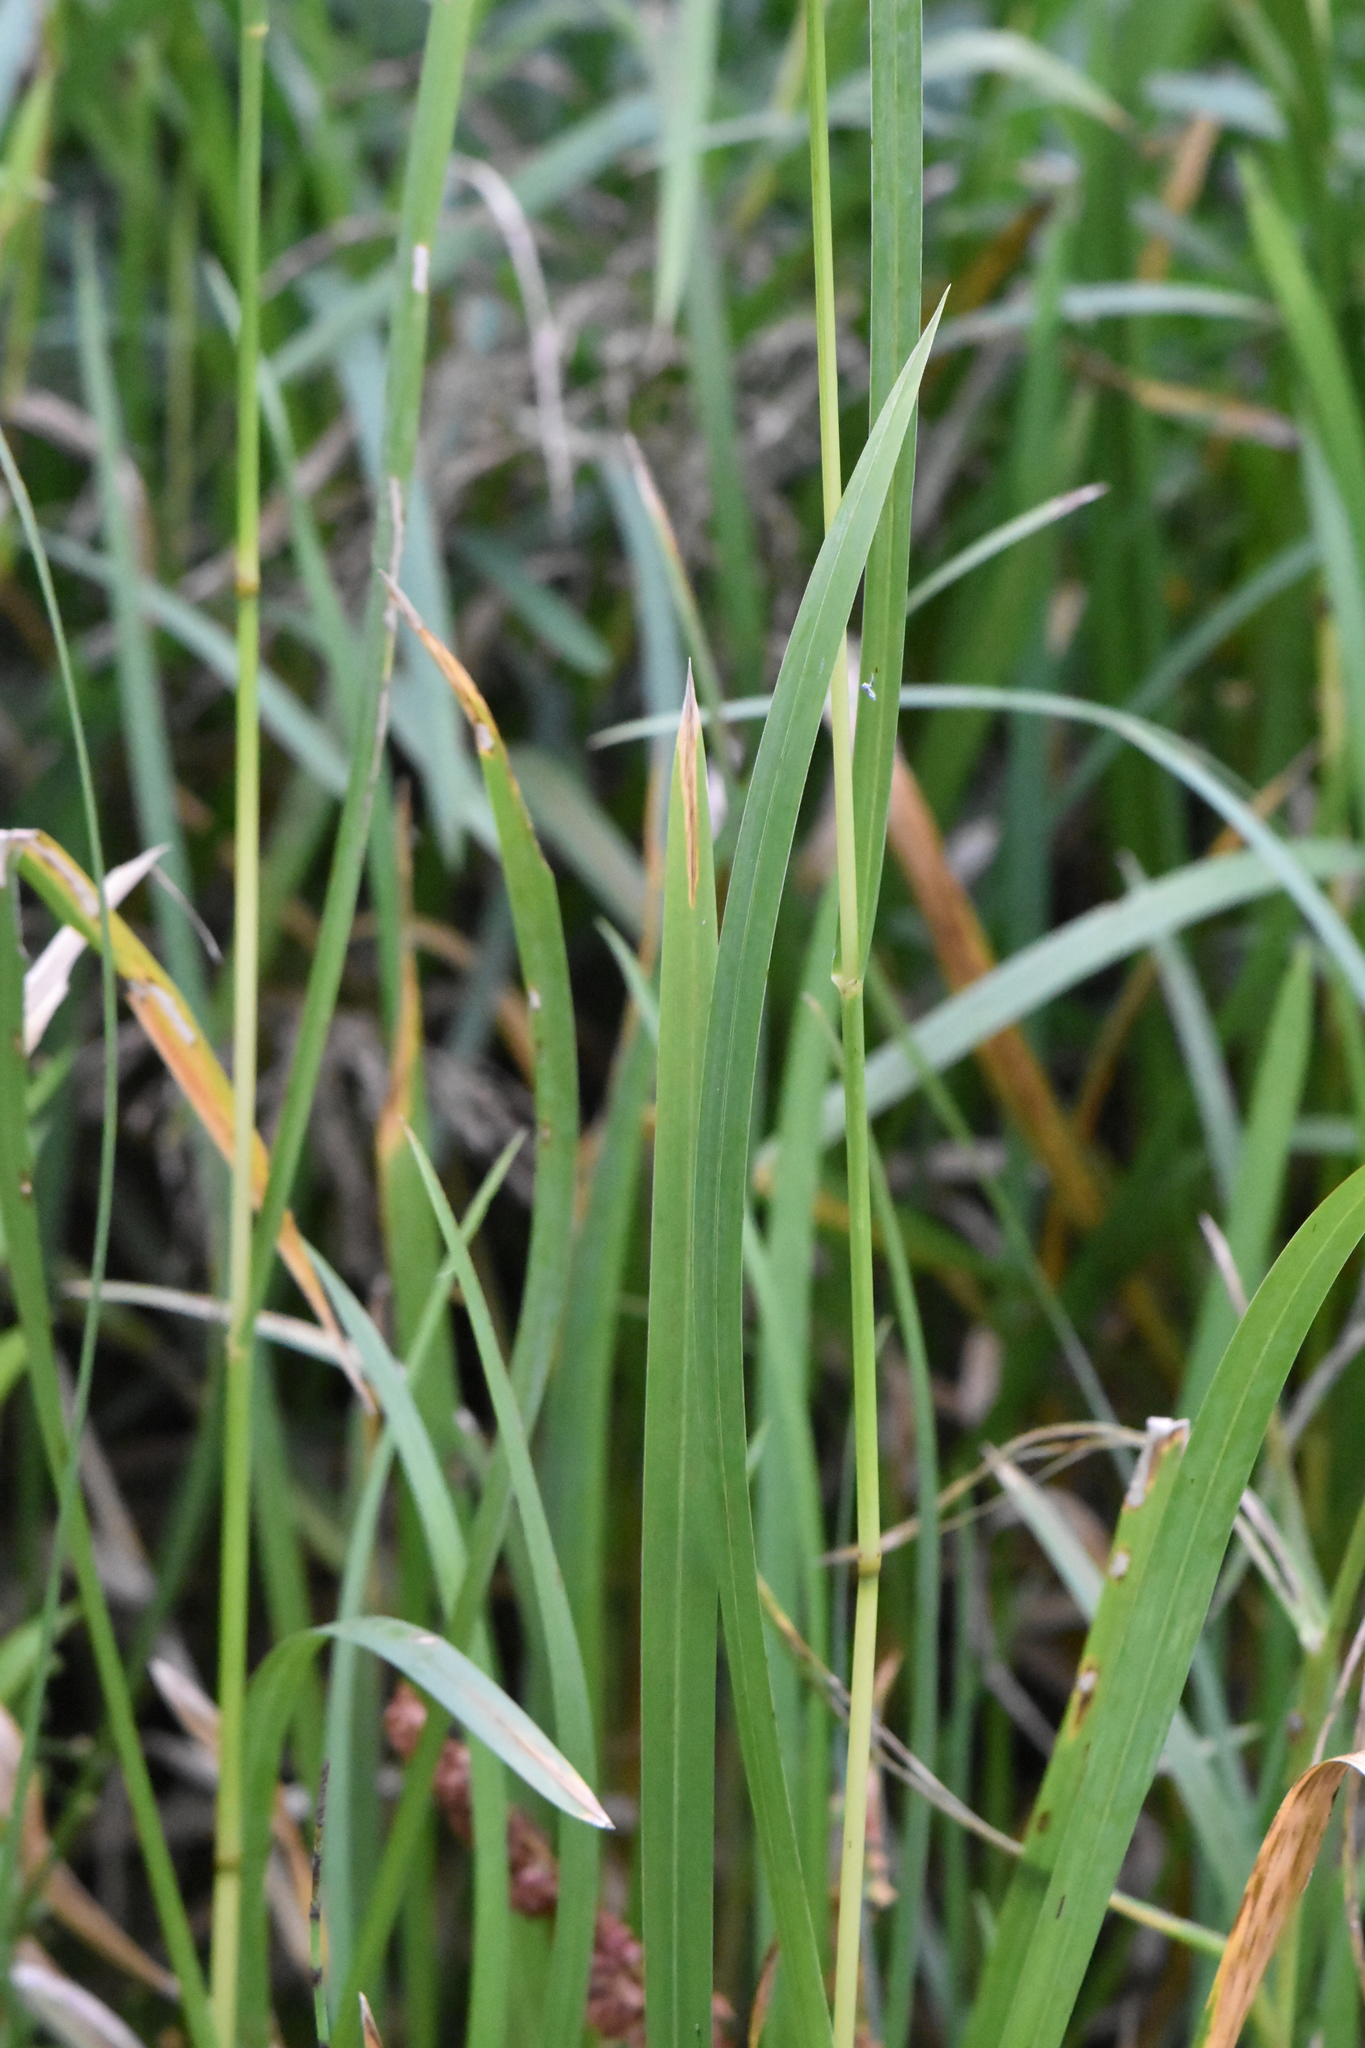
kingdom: Plantae
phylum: Tracheophyta
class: Liliopsida
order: Poales
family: Poaceae
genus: Glyceria
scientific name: Glyceria maxima
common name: Reed mannagrass
